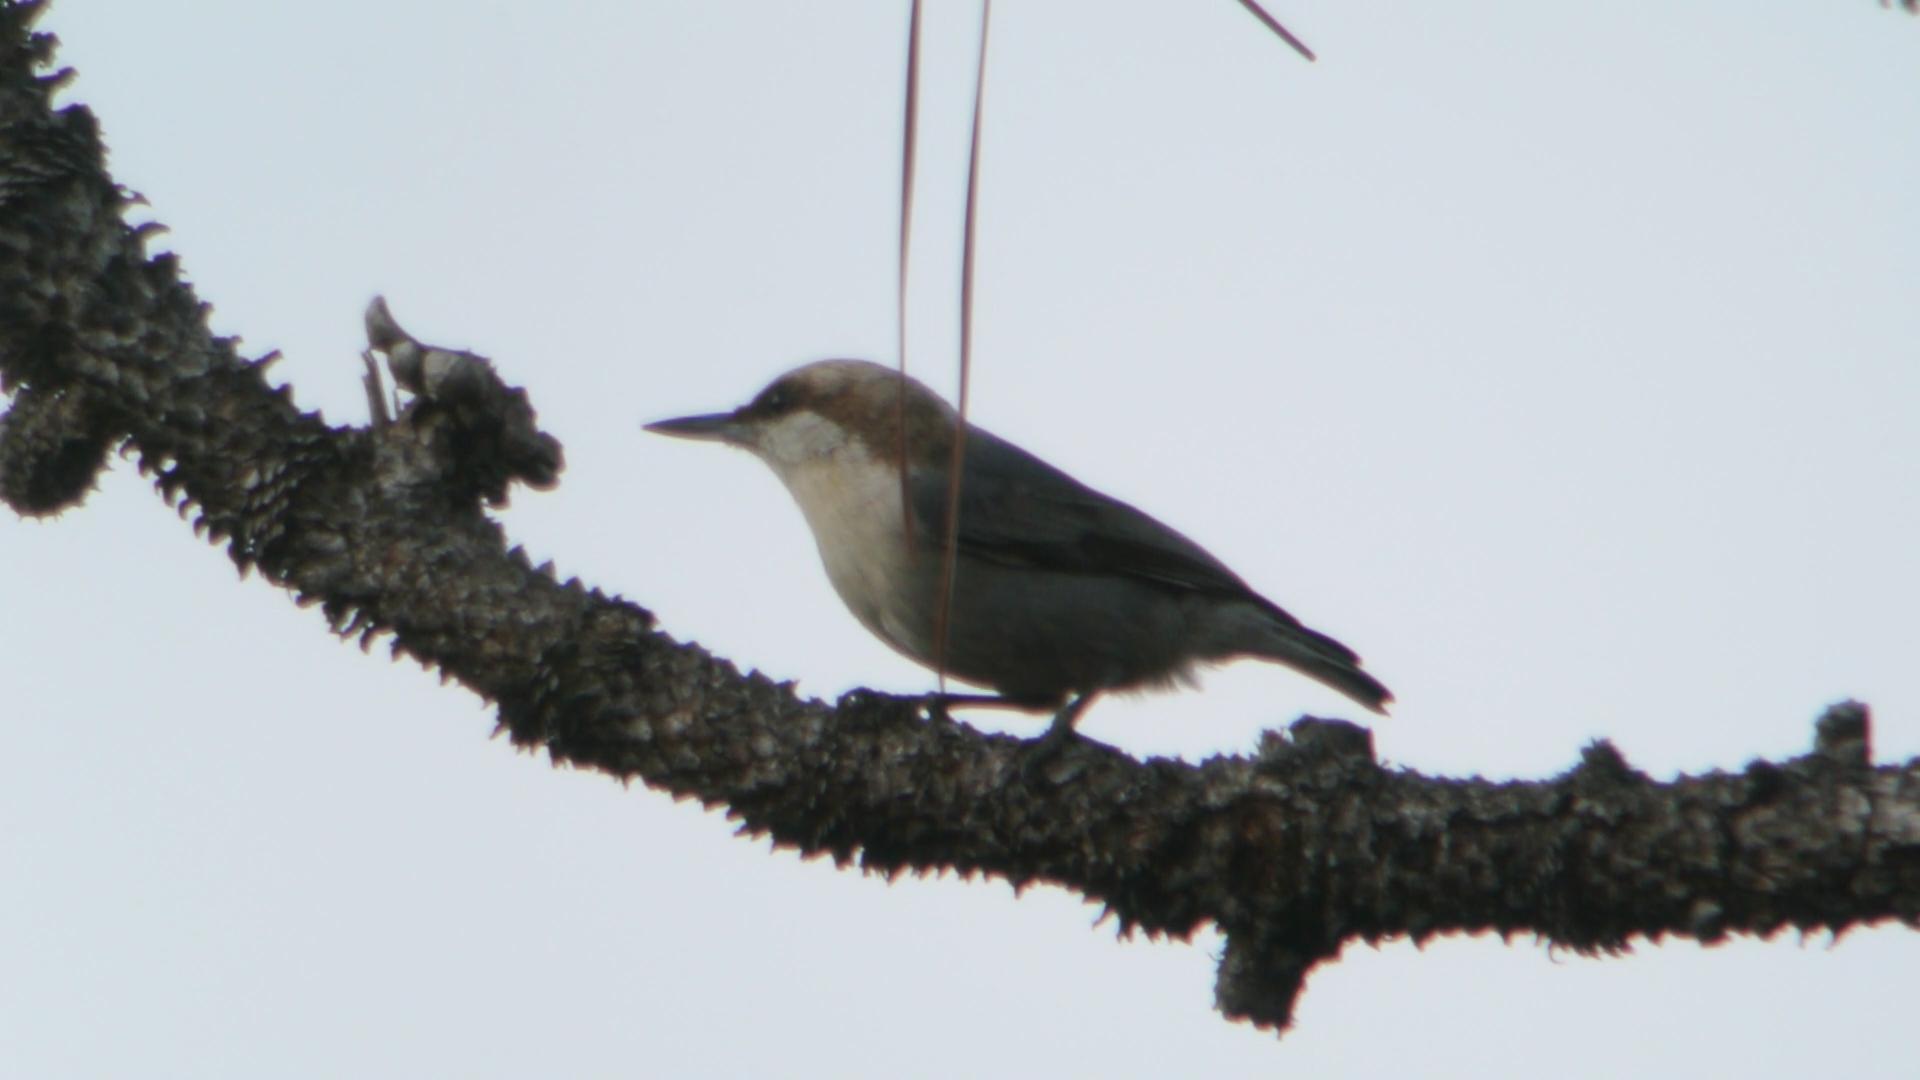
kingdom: Animalia
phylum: Chordata
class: Aves
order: Passeriformes
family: Sittidae
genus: Sitta
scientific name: Sitta pusilla
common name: Brown-headed nuthatch
